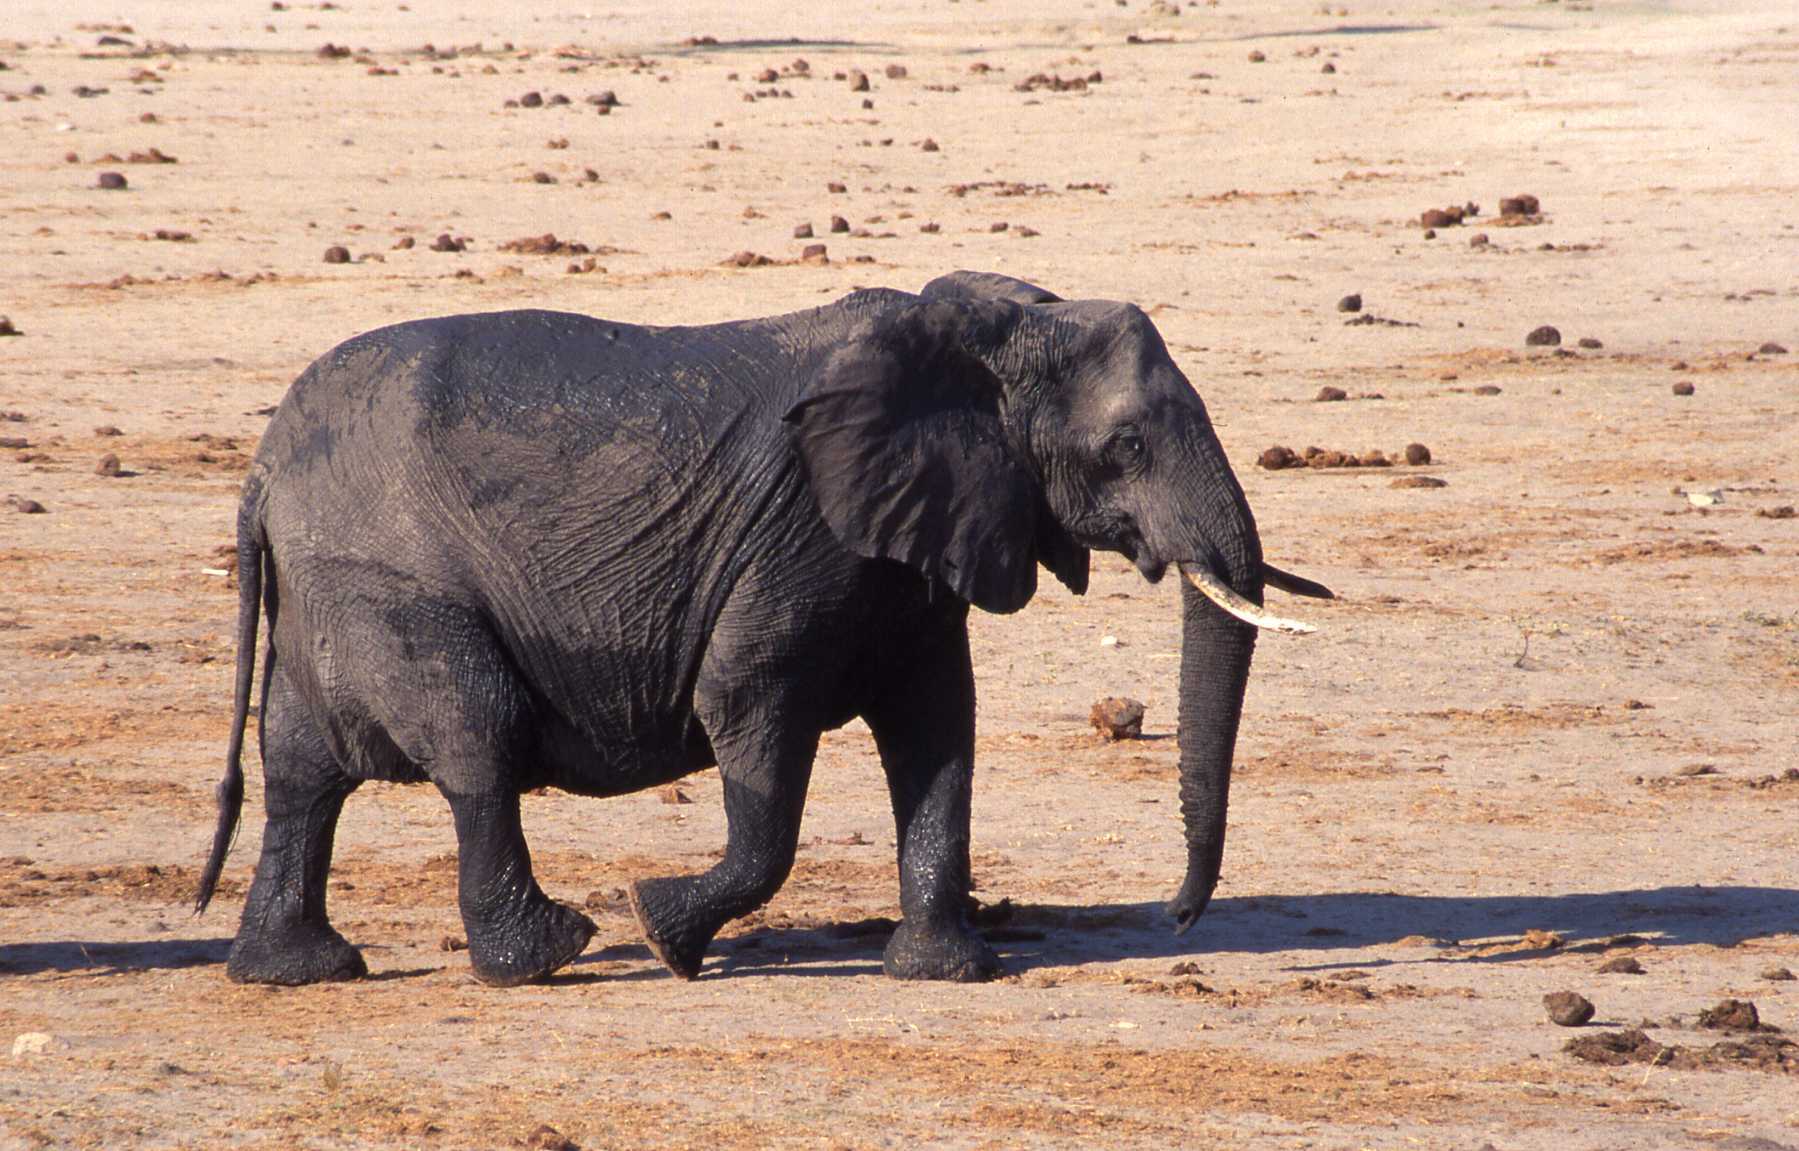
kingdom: Animalia
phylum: Chordata
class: Mammalia
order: Proboscidea
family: Elephantidae
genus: Loxodonta
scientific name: Loxodonta africana
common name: African elephant
